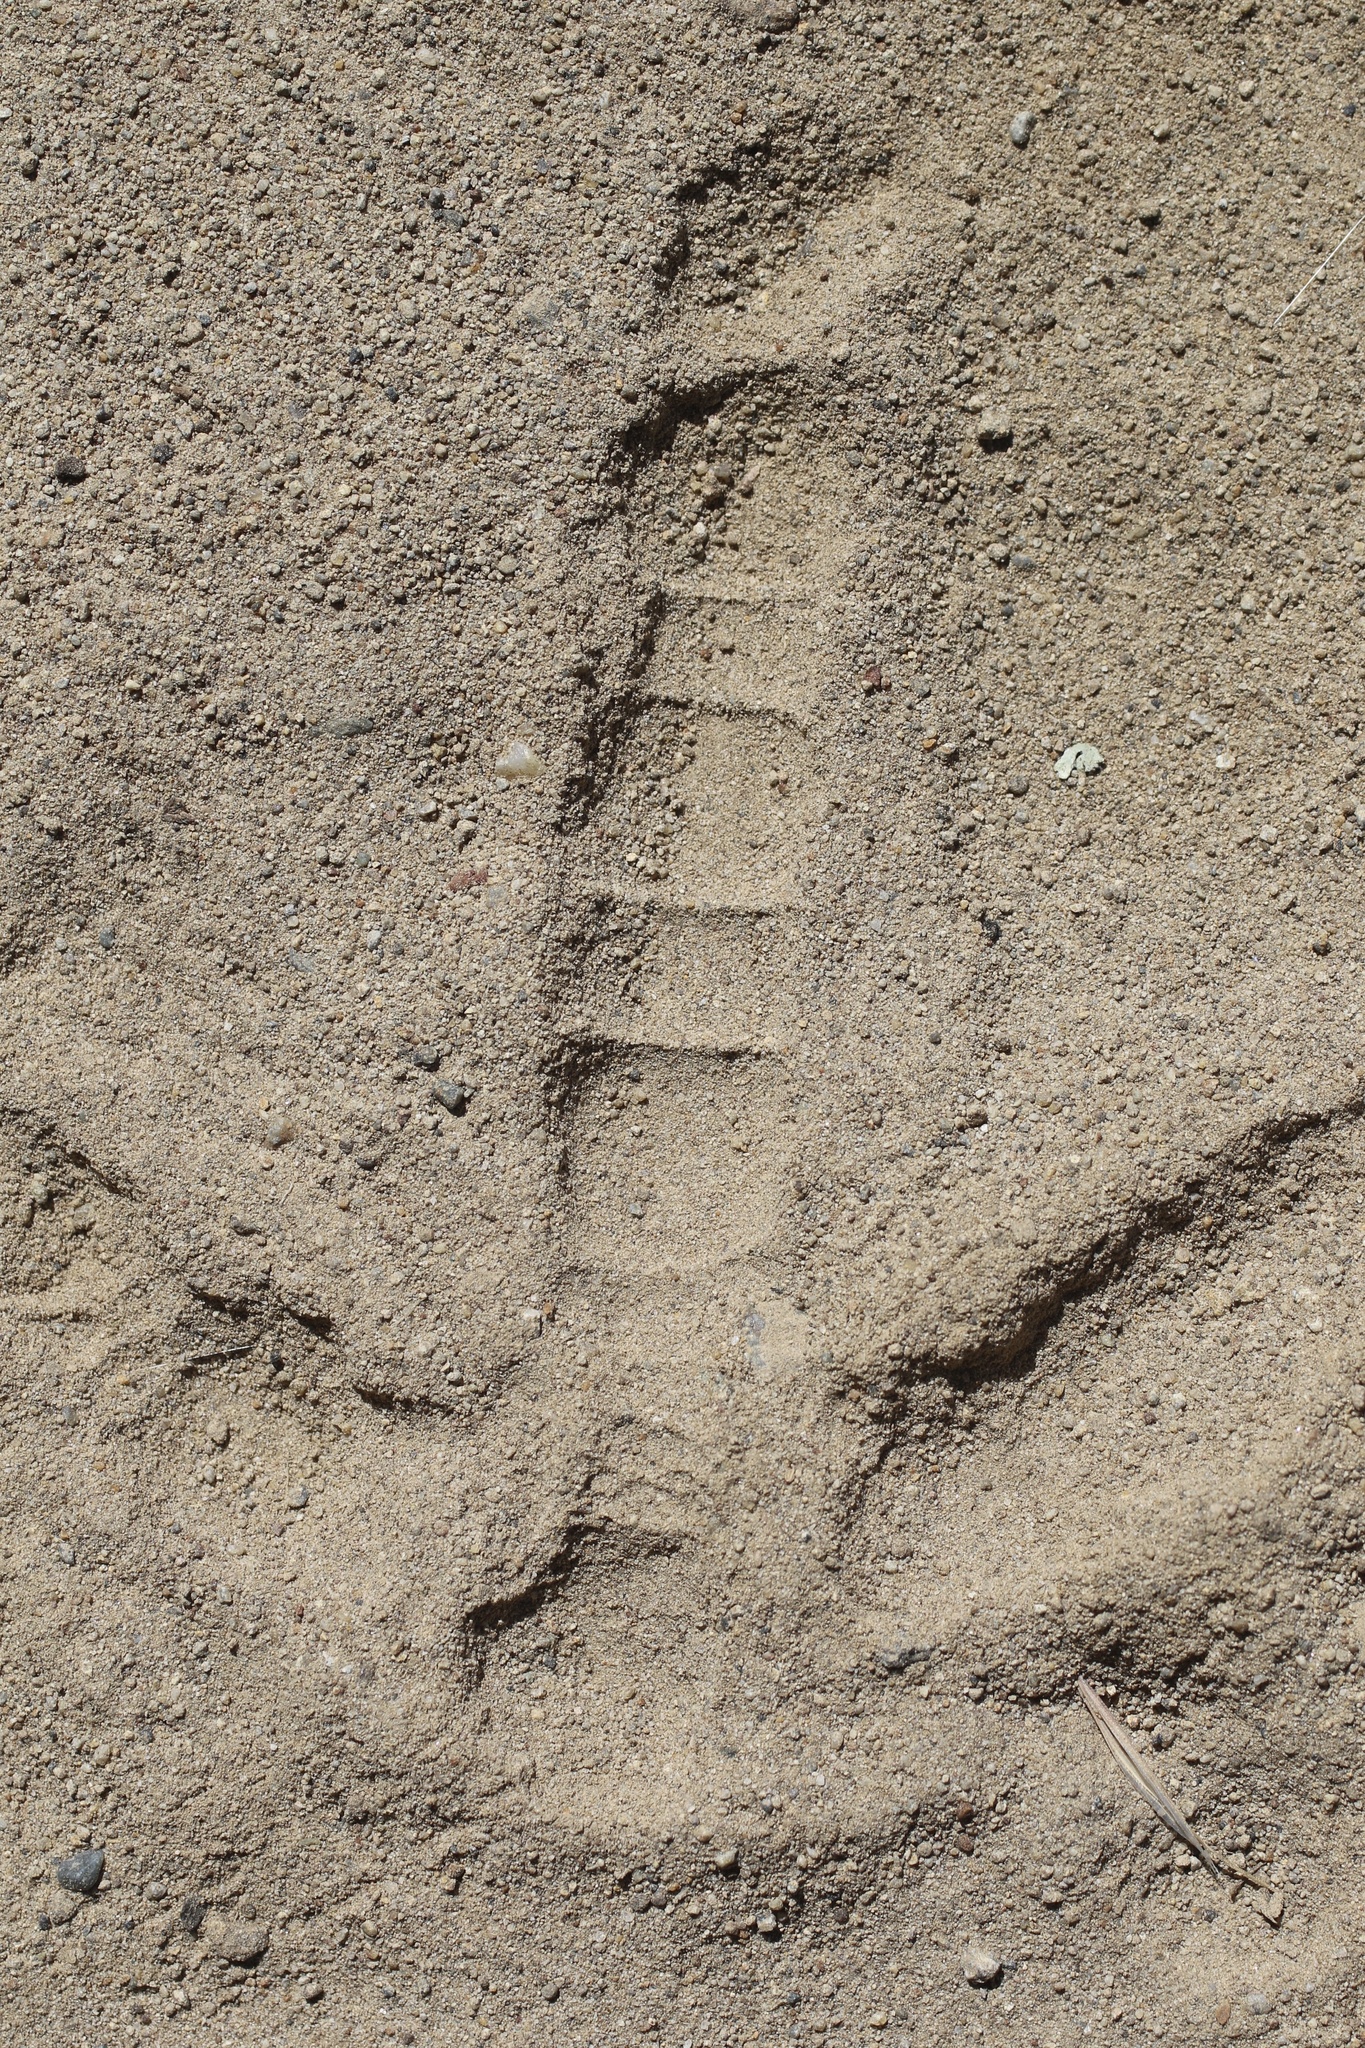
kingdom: Animalia
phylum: Chordata
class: Aves
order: Galliformes
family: Phasianidae
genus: Meleagris
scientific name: Meleagris gallopavo
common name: Wild turkey
